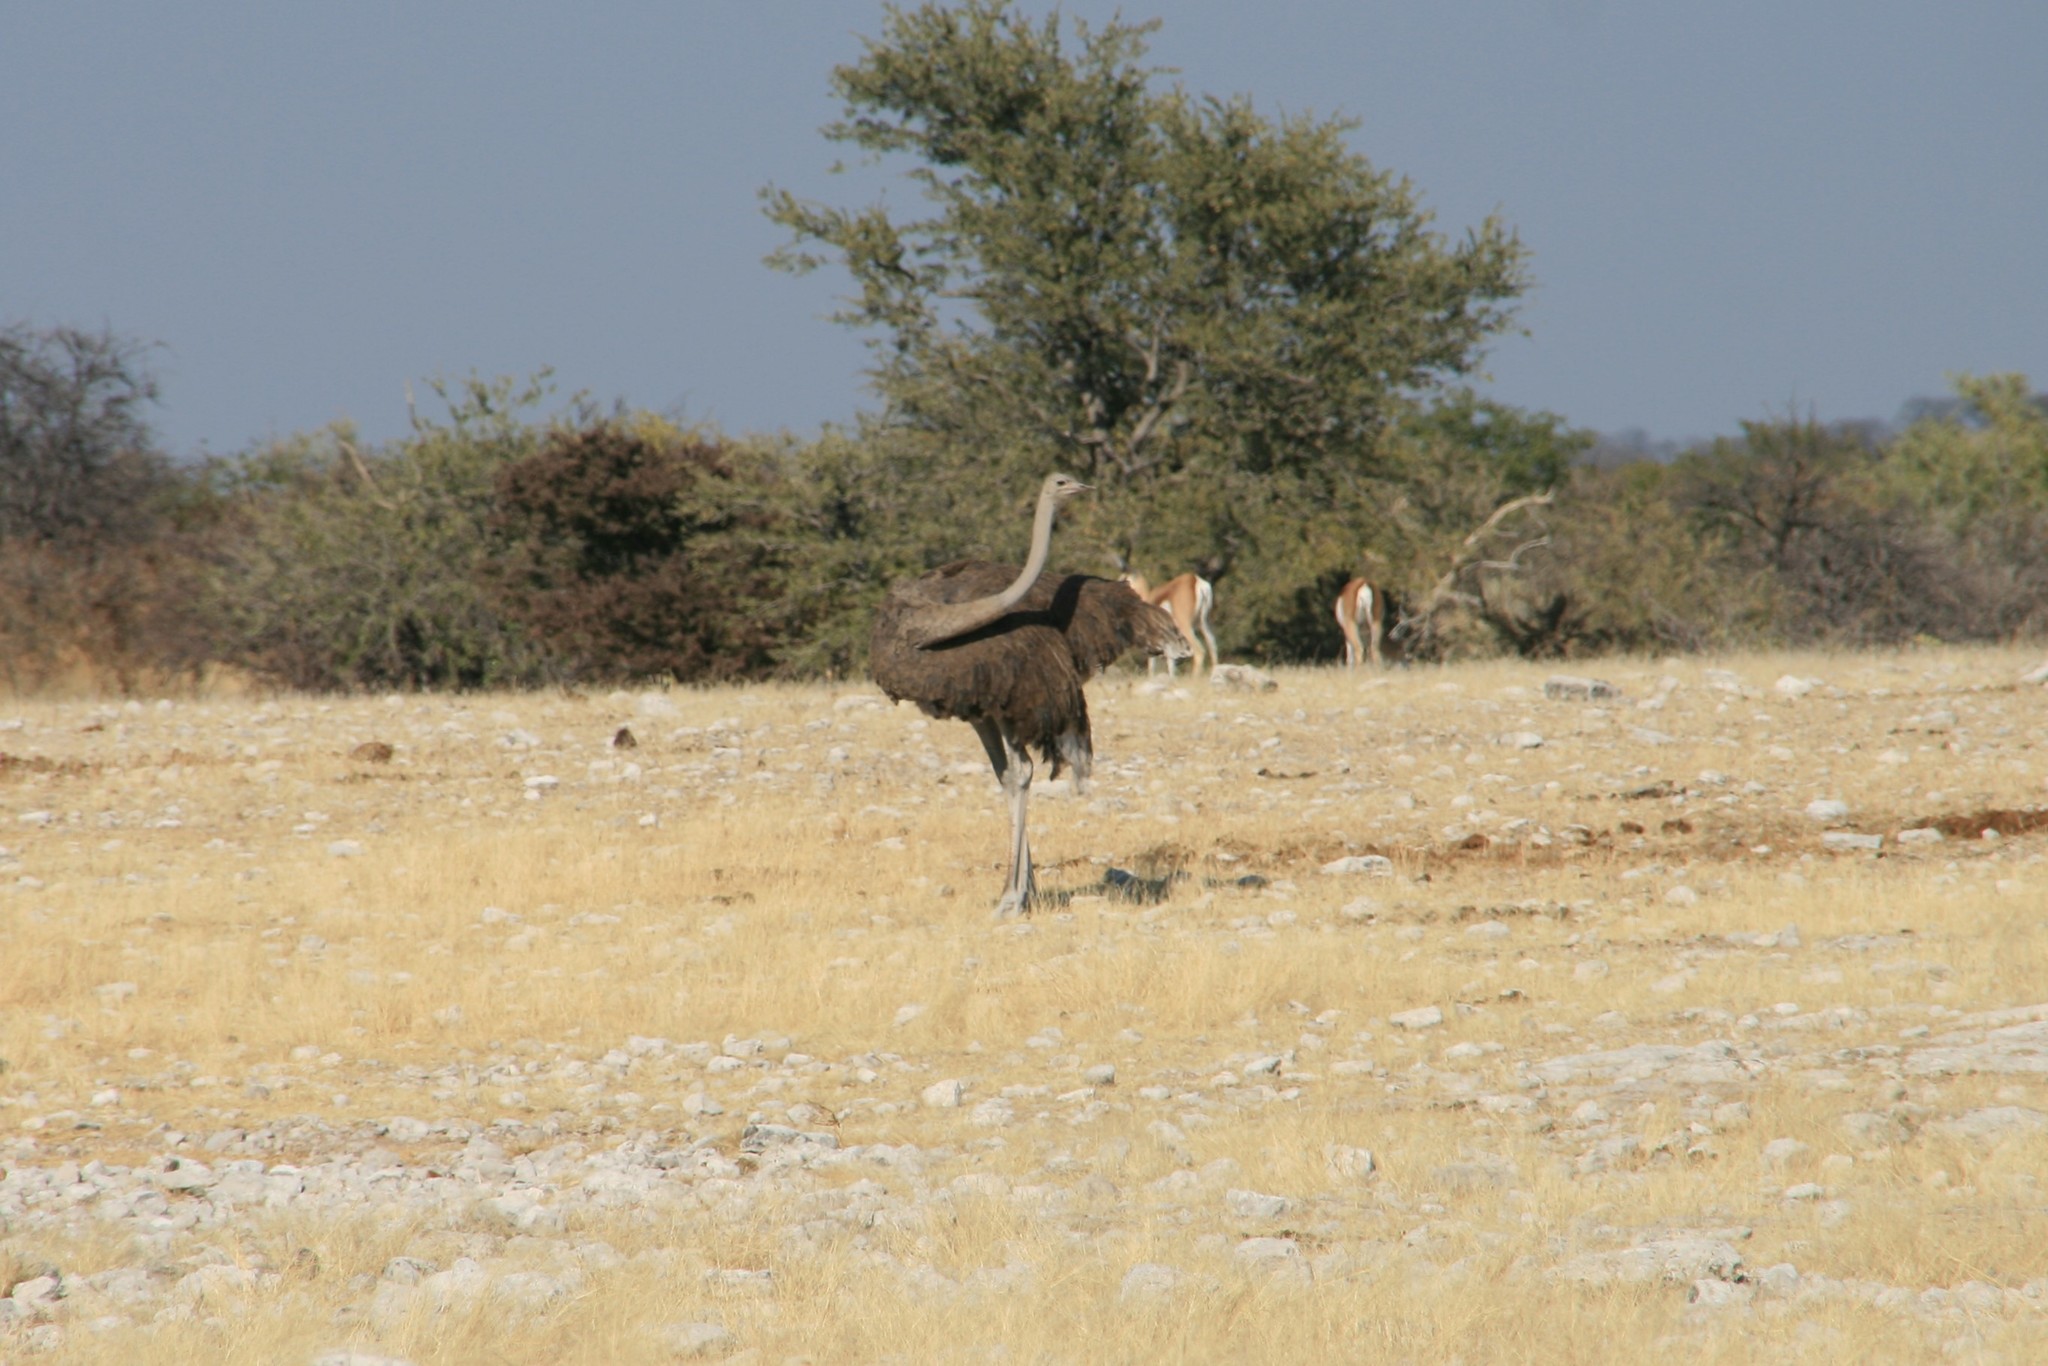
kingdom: Animalia
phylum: Chordata
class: Aves
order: Struthioniformes
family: Struthionidae
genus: Struthio
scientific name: Struthio camelus
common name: Common ostrich
